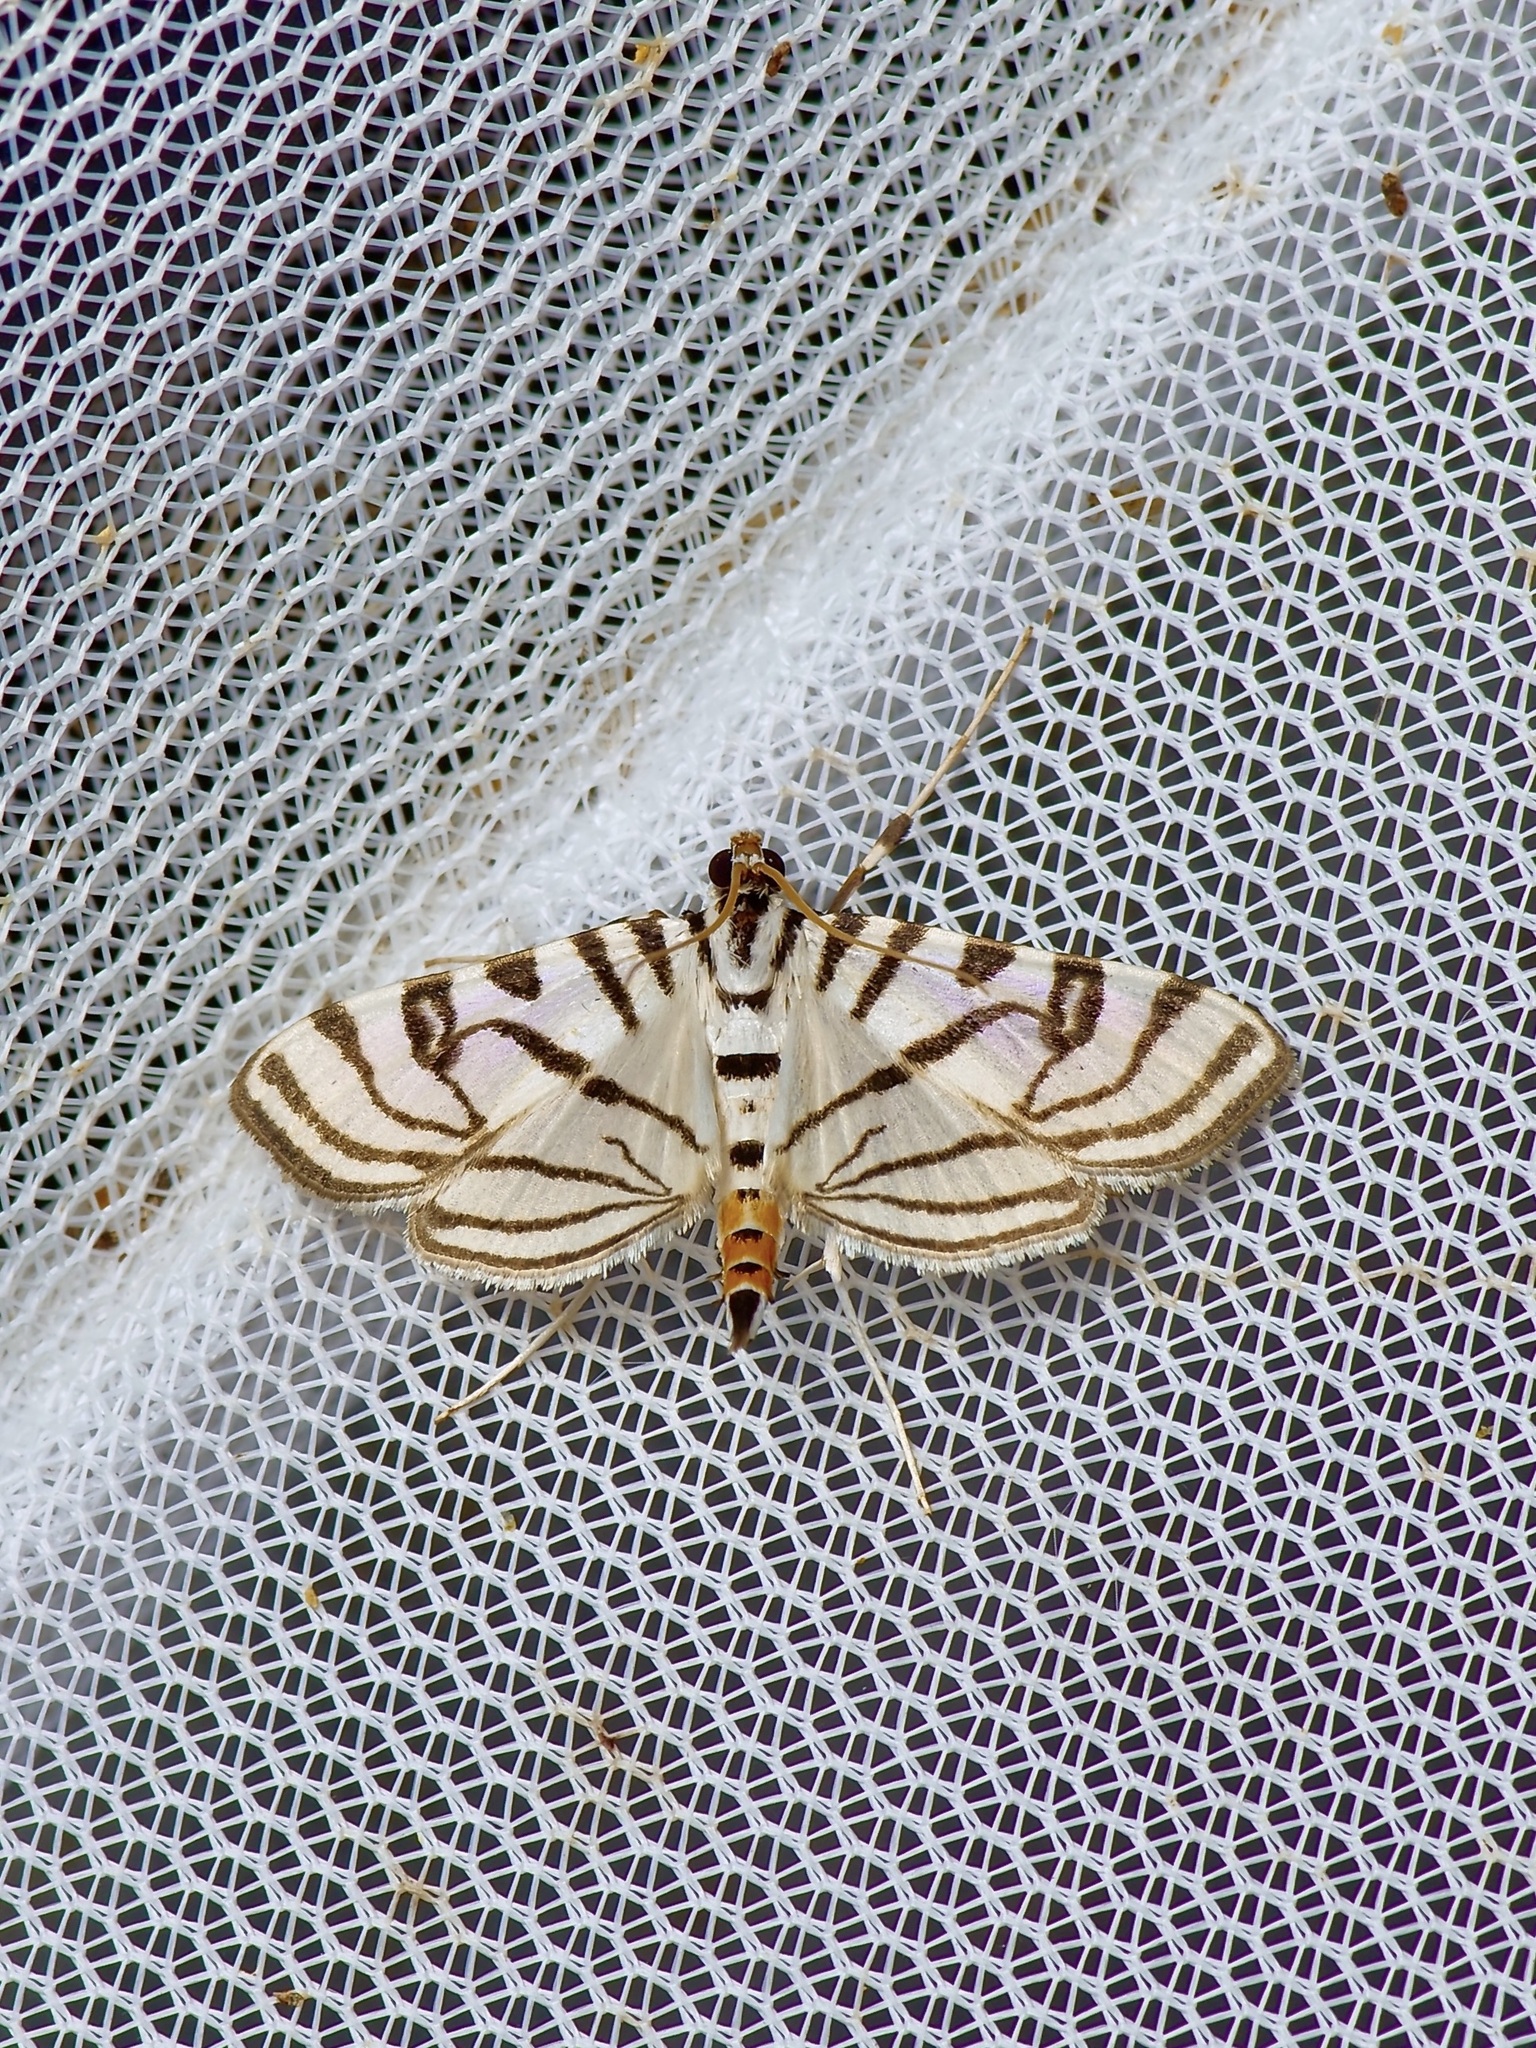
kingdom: Animalia
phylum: Arthropoda
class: Insecta
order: Lepidoptera
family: Crambidae
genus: Conchylodes
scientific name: Conchylodes ovulalis
